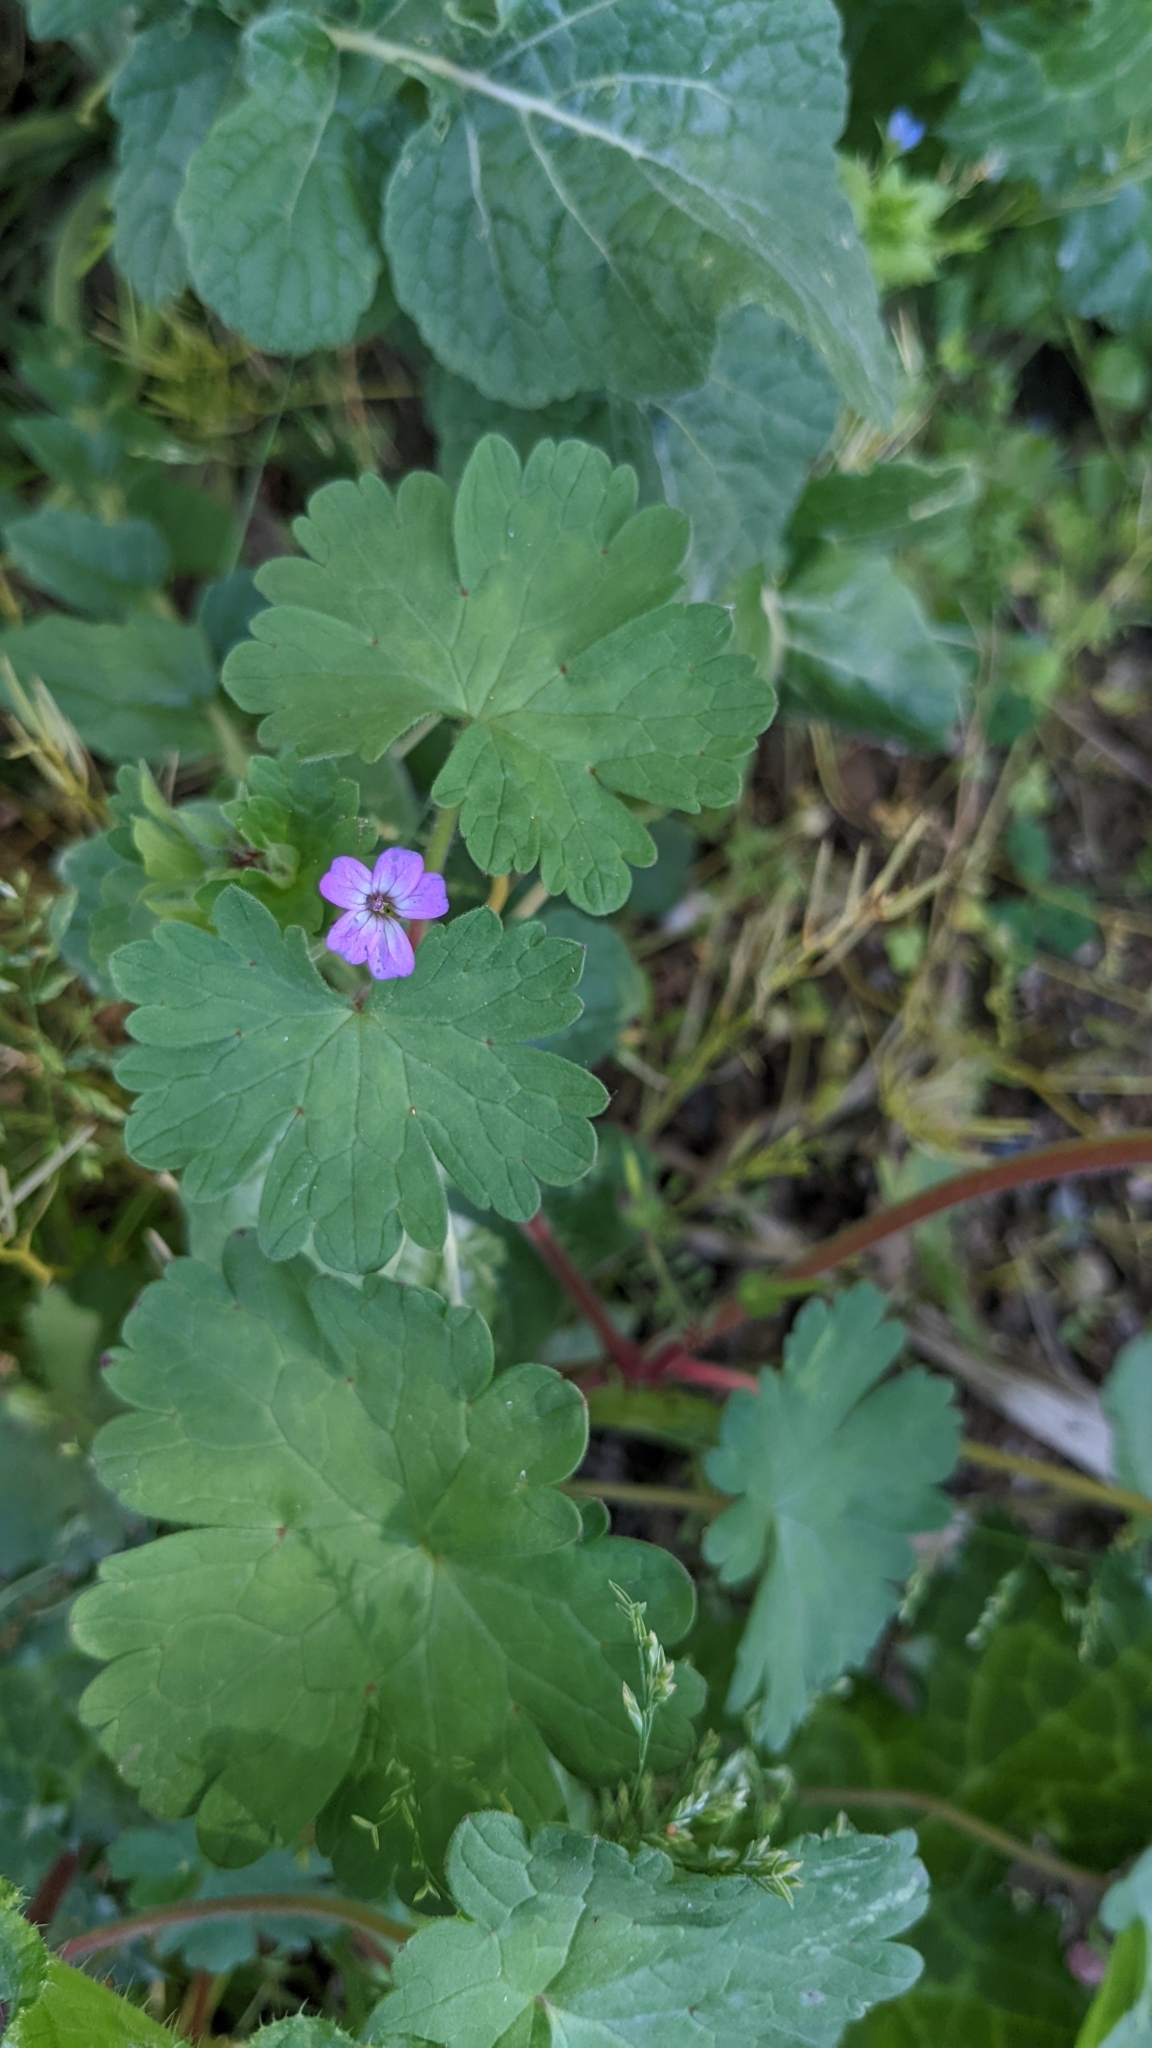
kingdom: Plantae
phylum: Tracheophyta
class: Magnoliopsida
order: Geraniales
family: Geraniaceae
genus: Geranium
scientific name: Geranium rotundifolium
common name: Round-leaved crane's-bill
